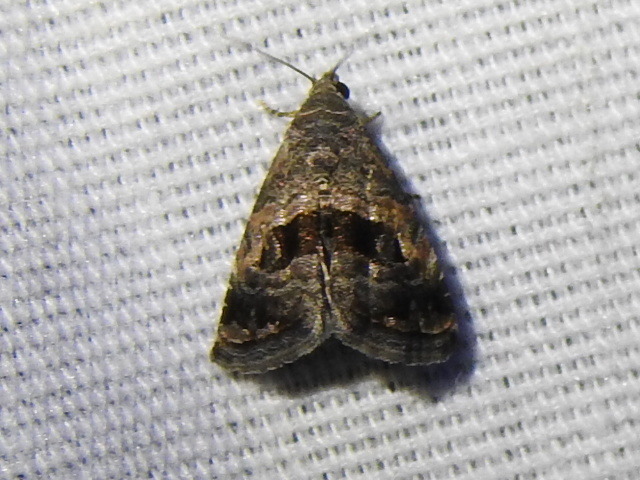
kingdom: Animalia
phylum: Arthropoda
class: Insecta
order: Lepidoptera
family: Noctuidae
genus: Tripudia
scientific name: Tripudia quadrifera
